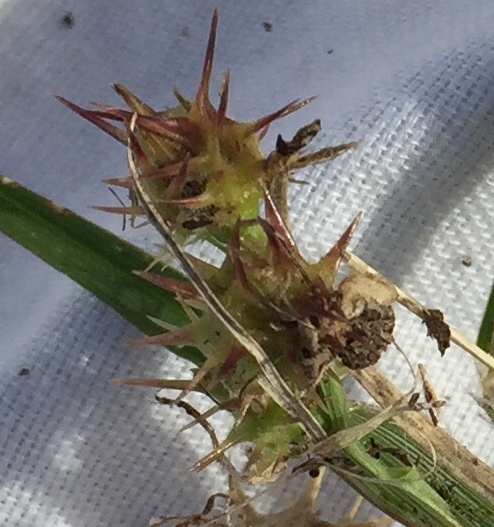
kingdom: Plantae
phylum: Tracheophyta
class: Liliopsida
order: Poales
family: Poaceae
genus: Cenchrus
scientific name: Cenchrus tribuloides
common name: Dune sandbur
